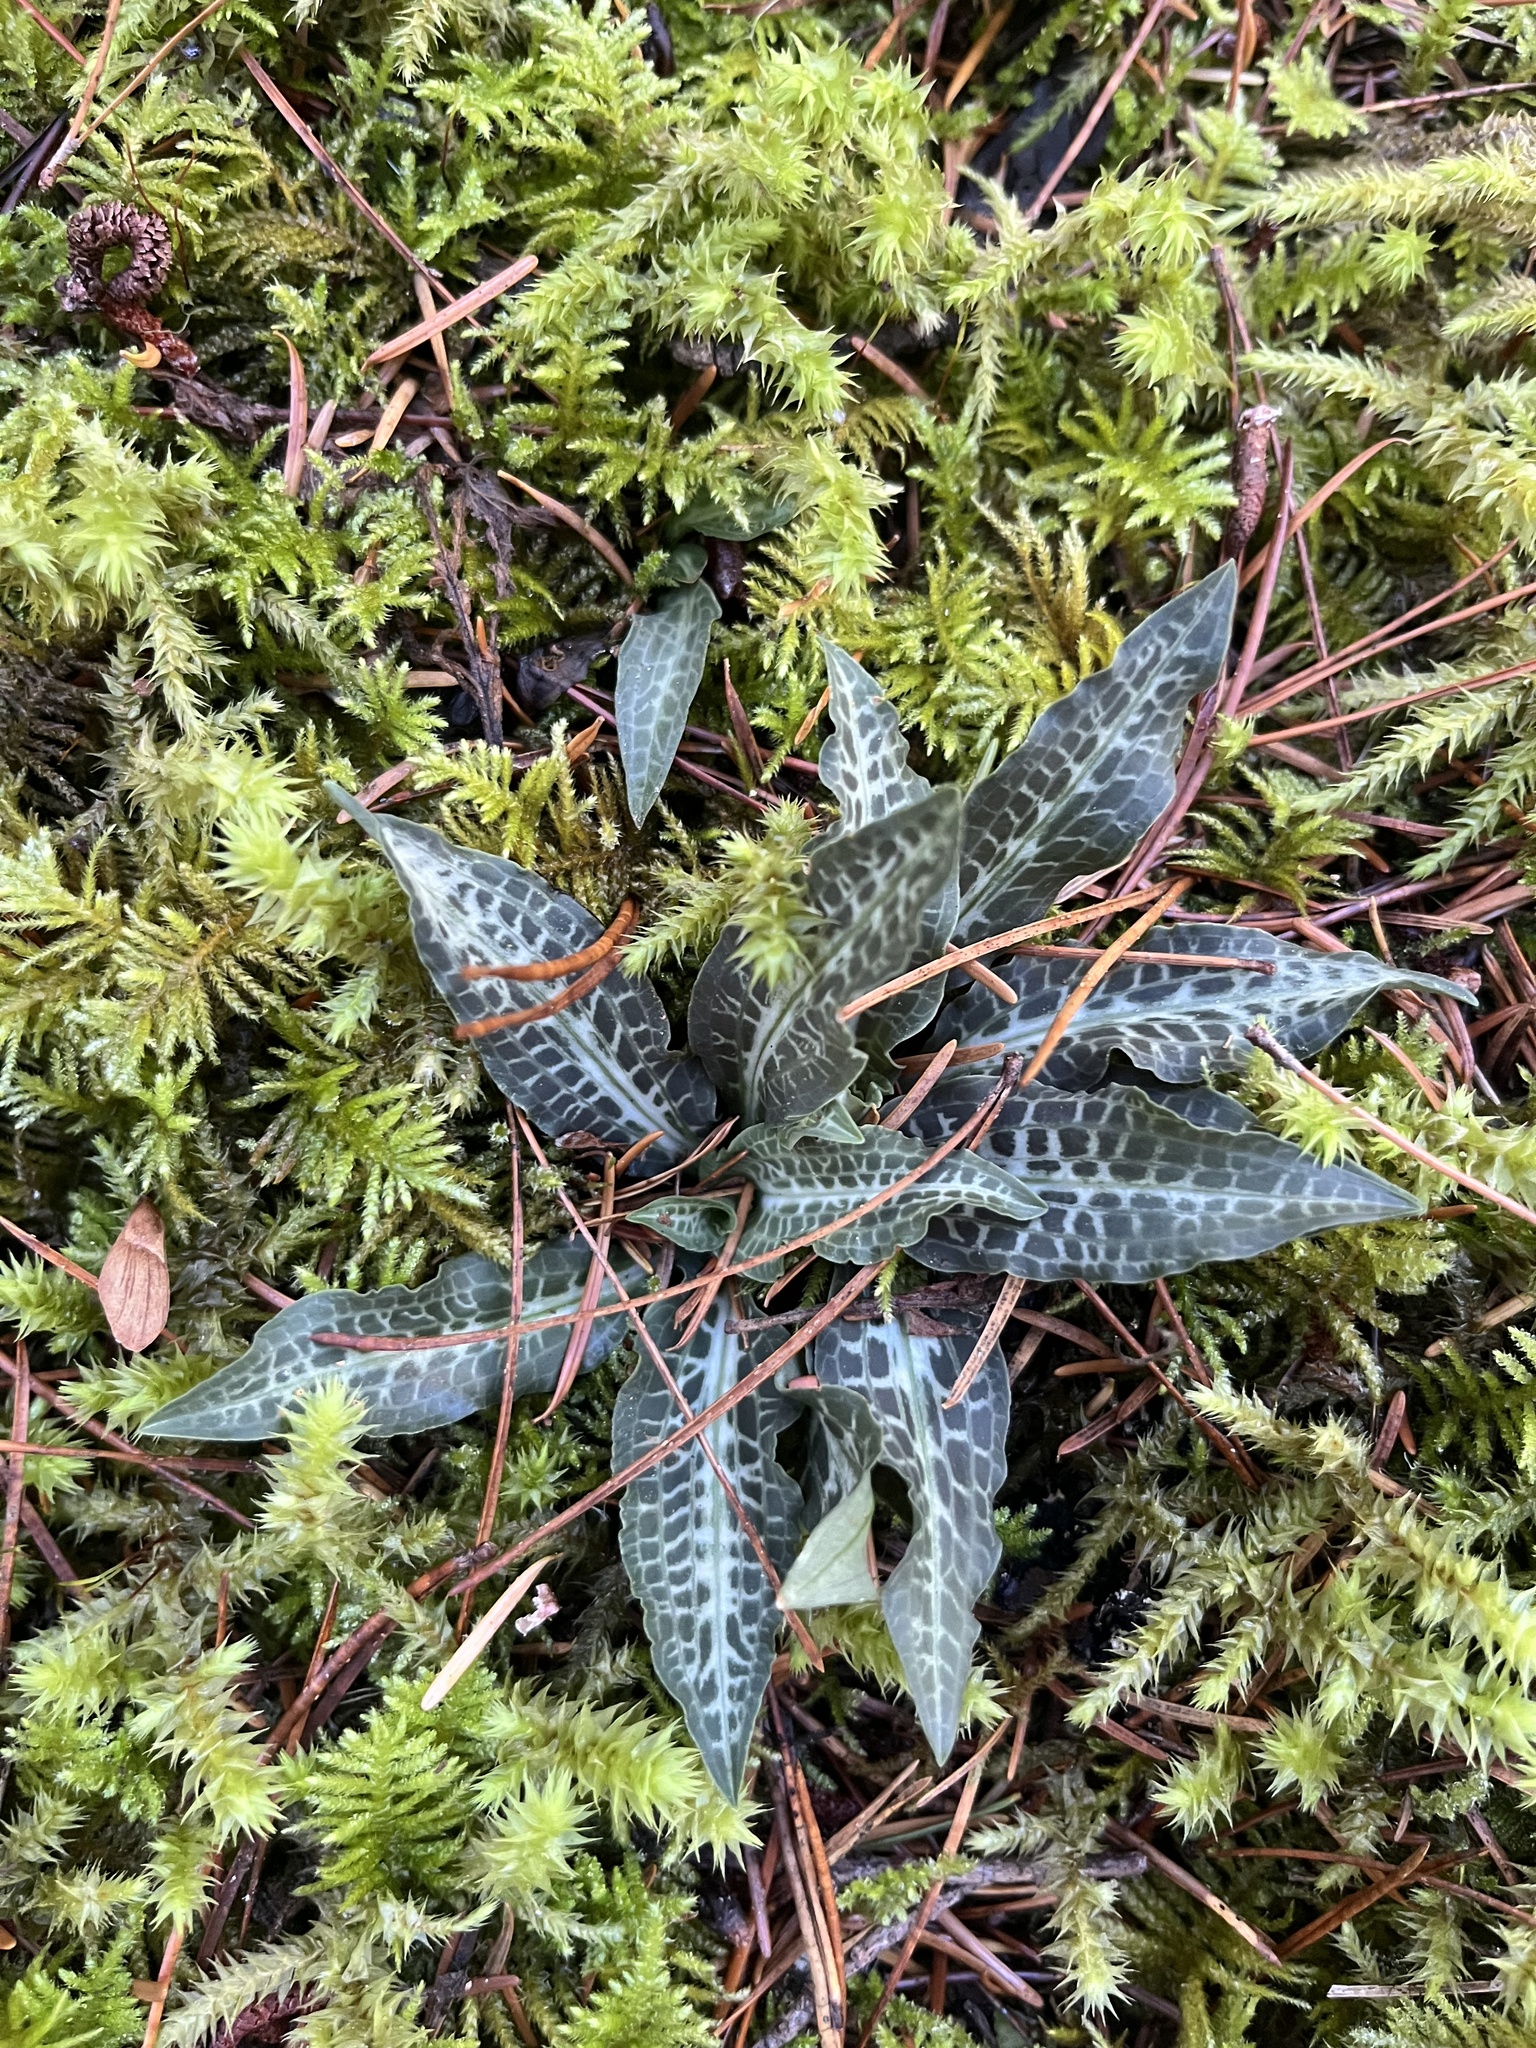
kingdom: Plantae
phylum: Tracheophyta
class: Liliopsida
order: Asparagales
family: Orchidaceae
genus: Goodyera
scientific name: Goodyera oblongifolia
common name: Giant rattlesnake-plantain
